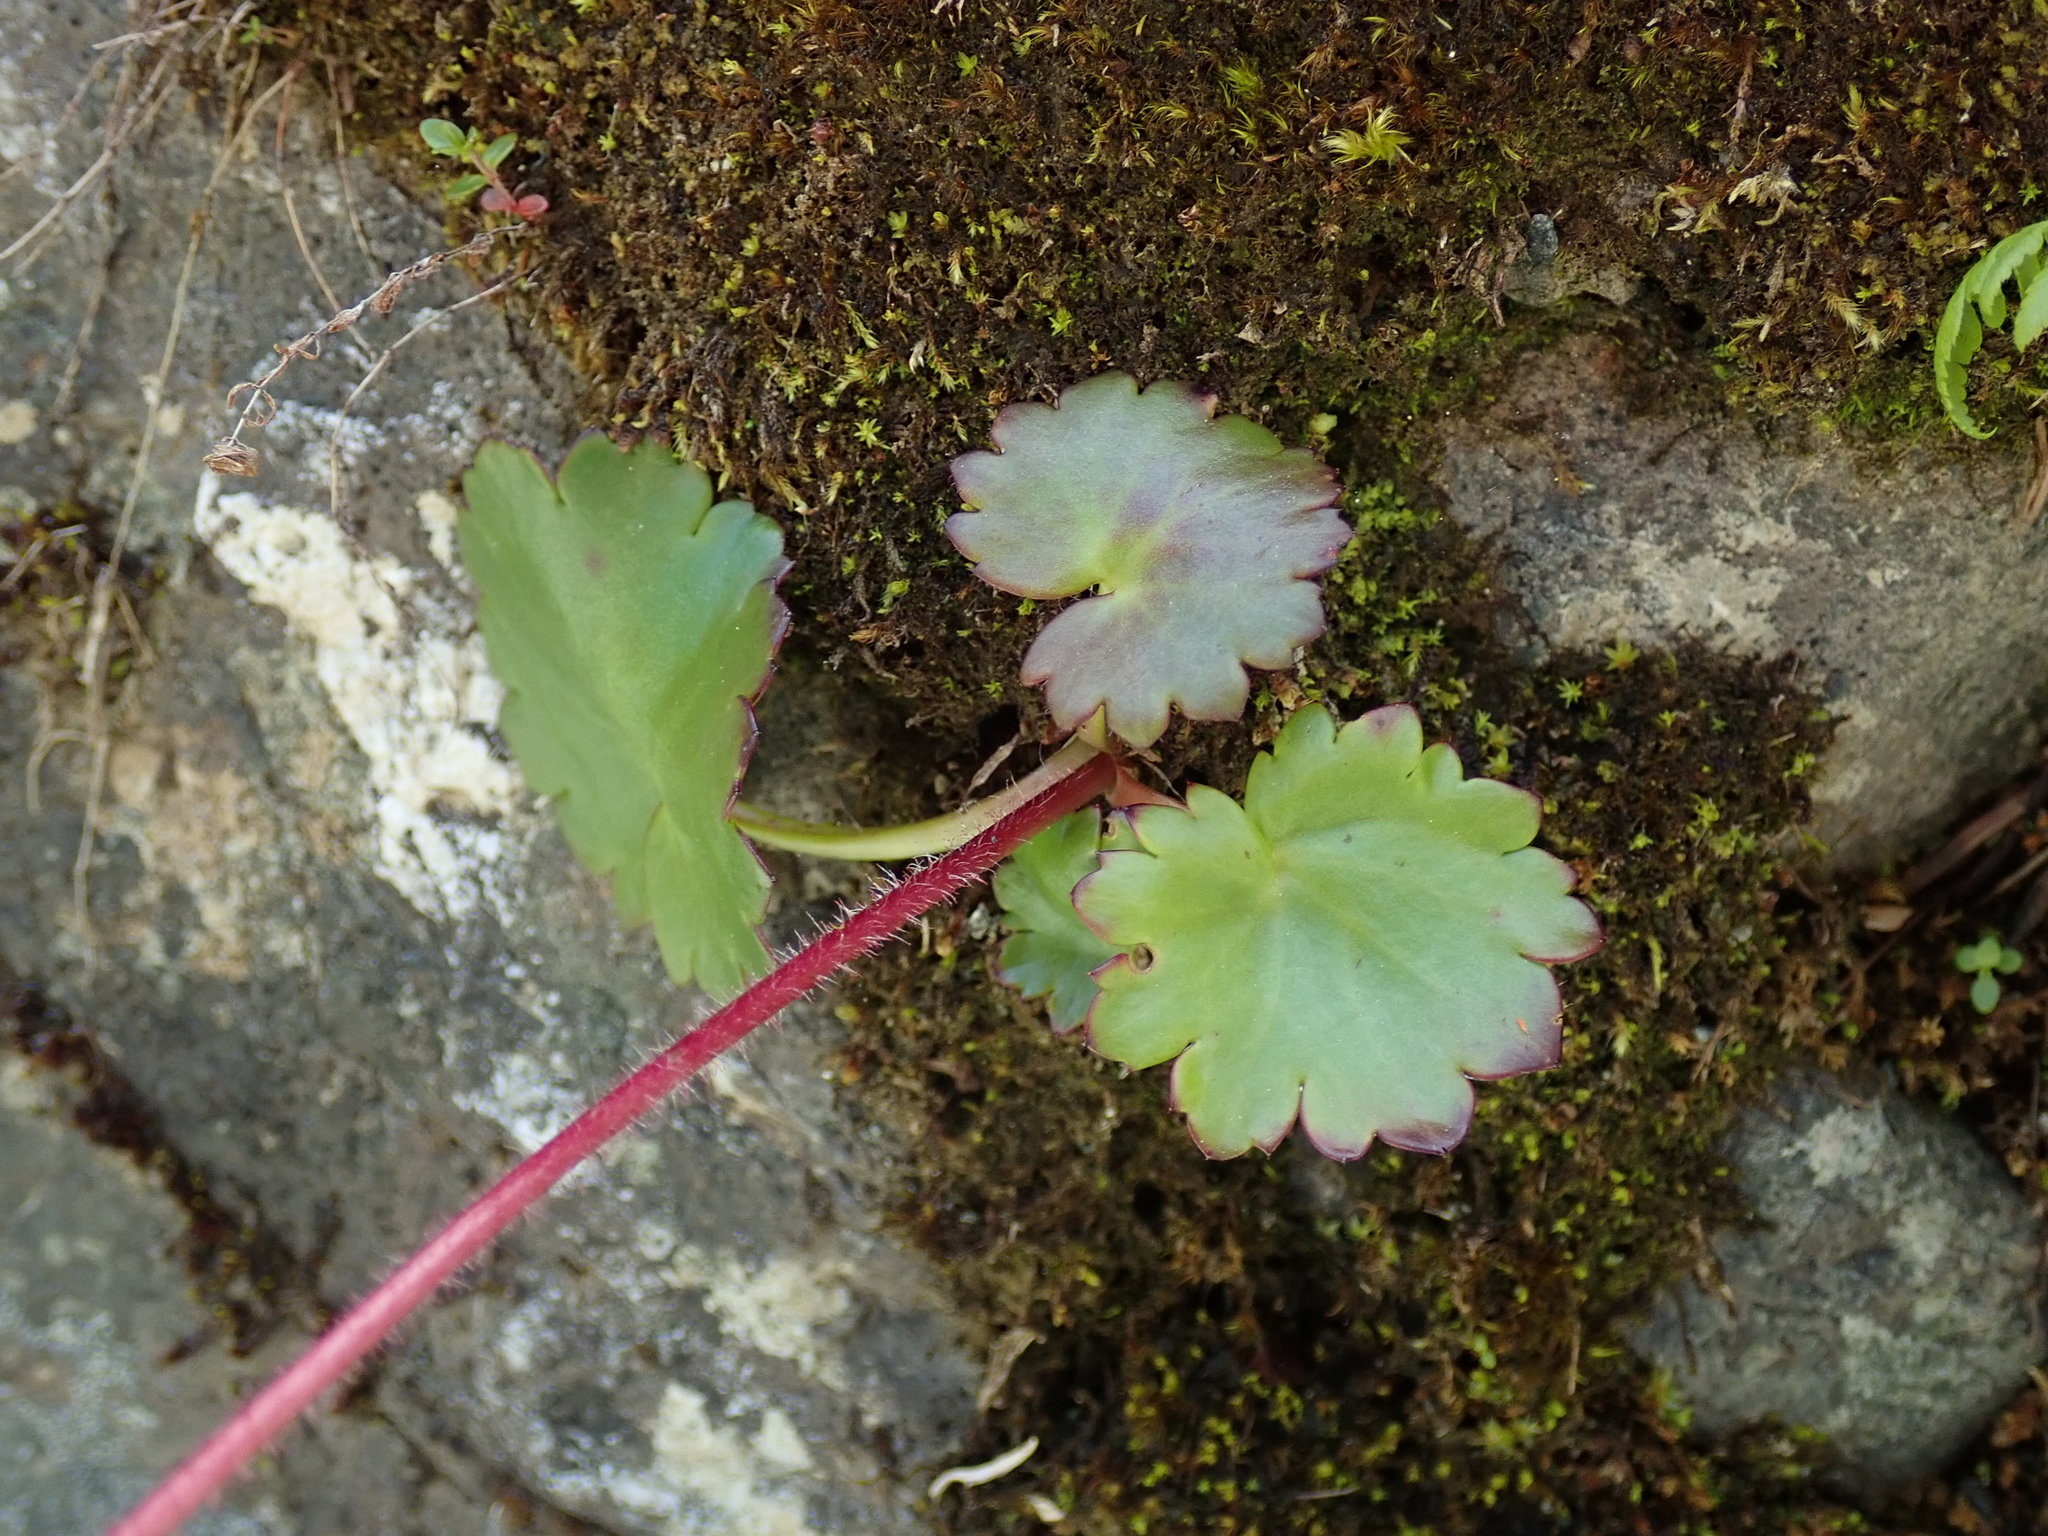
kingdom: Plantae
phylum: Tracheophyta
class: Magnoliopsida
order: Saxifragales
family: Saxifragaceae
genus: Micranthes
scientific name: Micranthes mertensiana
